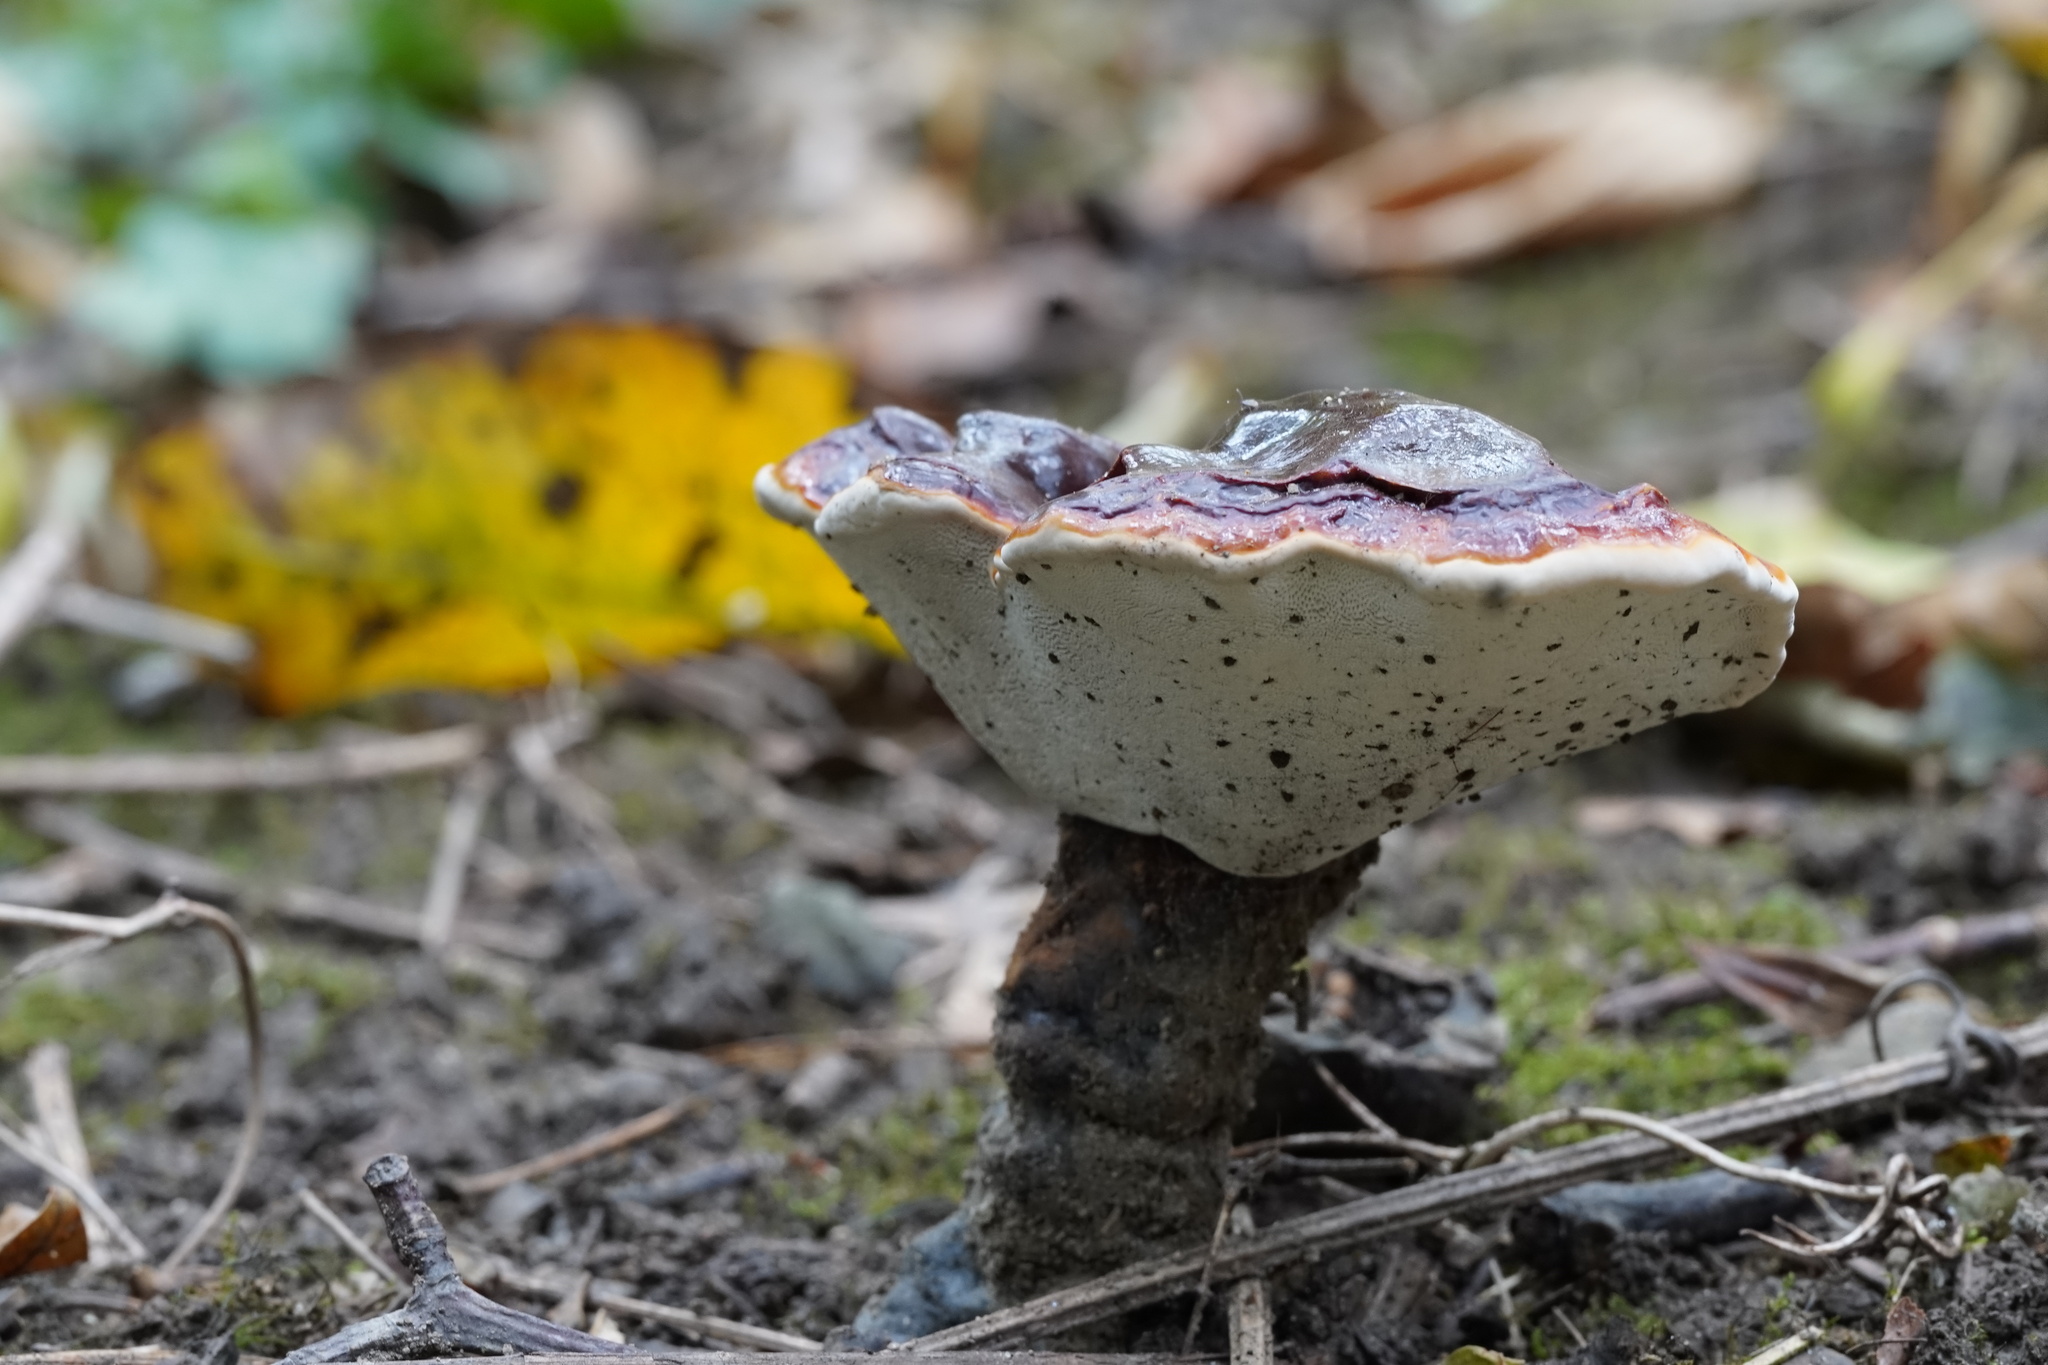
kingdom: Fungi
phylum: Basidiomycota
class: Agaricomycetes
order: Polyporales
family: Polyporaceae
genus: Ganoderma
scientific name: Ganoderma lucidum
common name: Lacquered bracket
